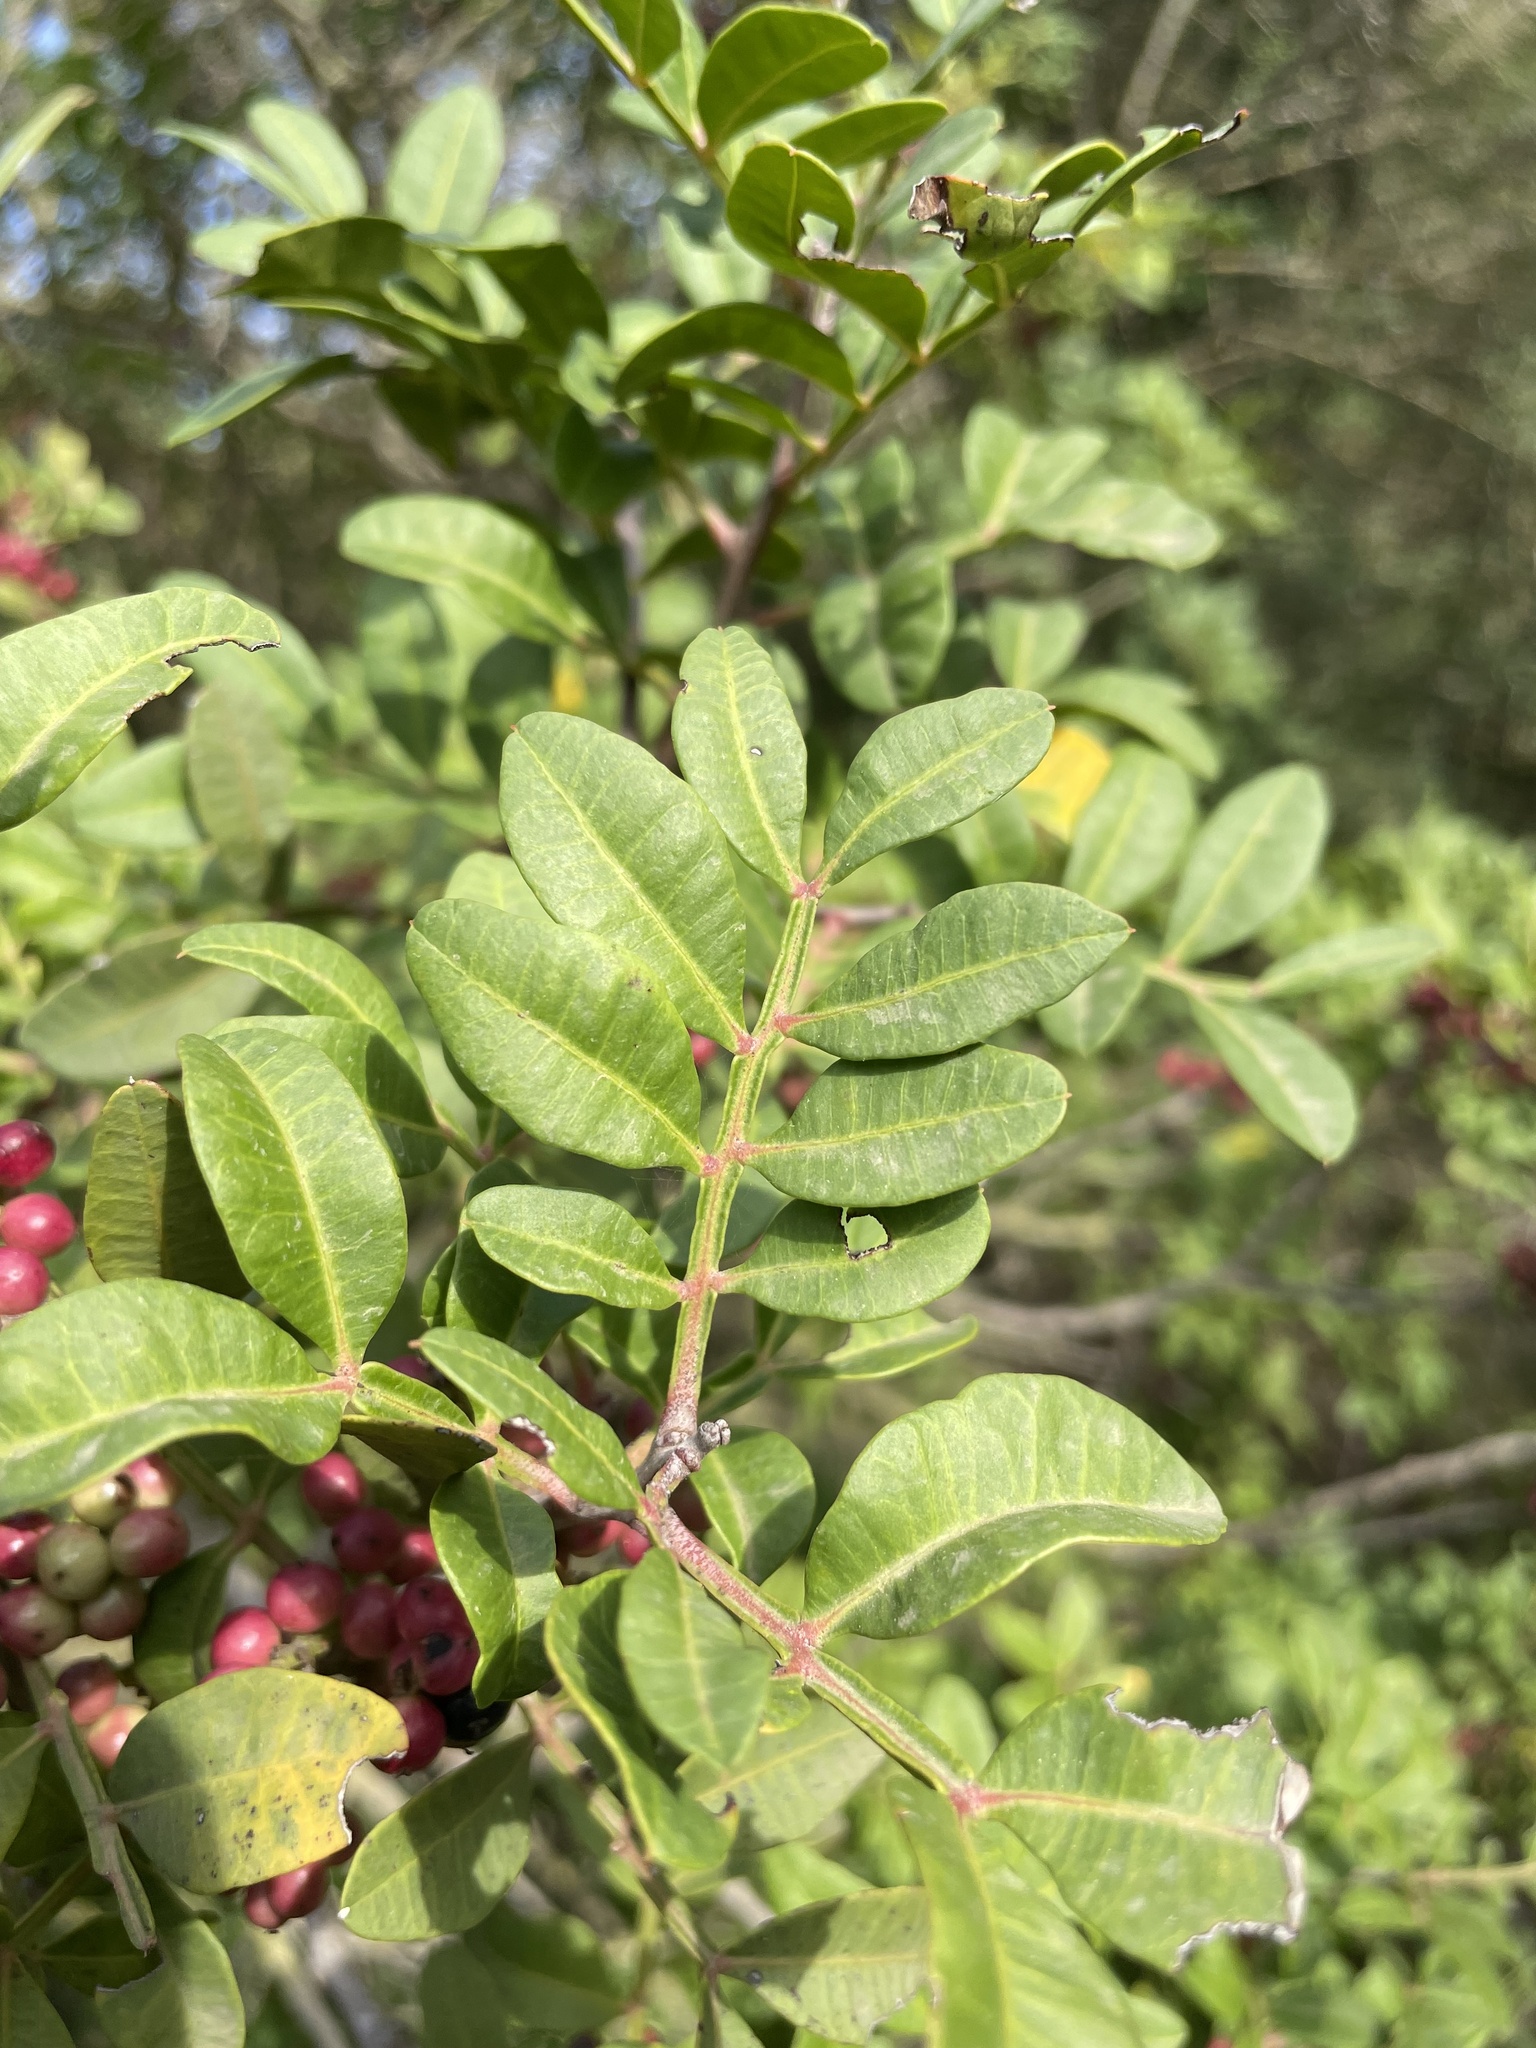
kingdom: Plantae
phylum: Tracheophyta
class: Magnoliopsida
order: Sapindales
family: Anacardiaceae
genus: Pistacia
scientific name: Pistacia lentiscus
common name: Lentisk
